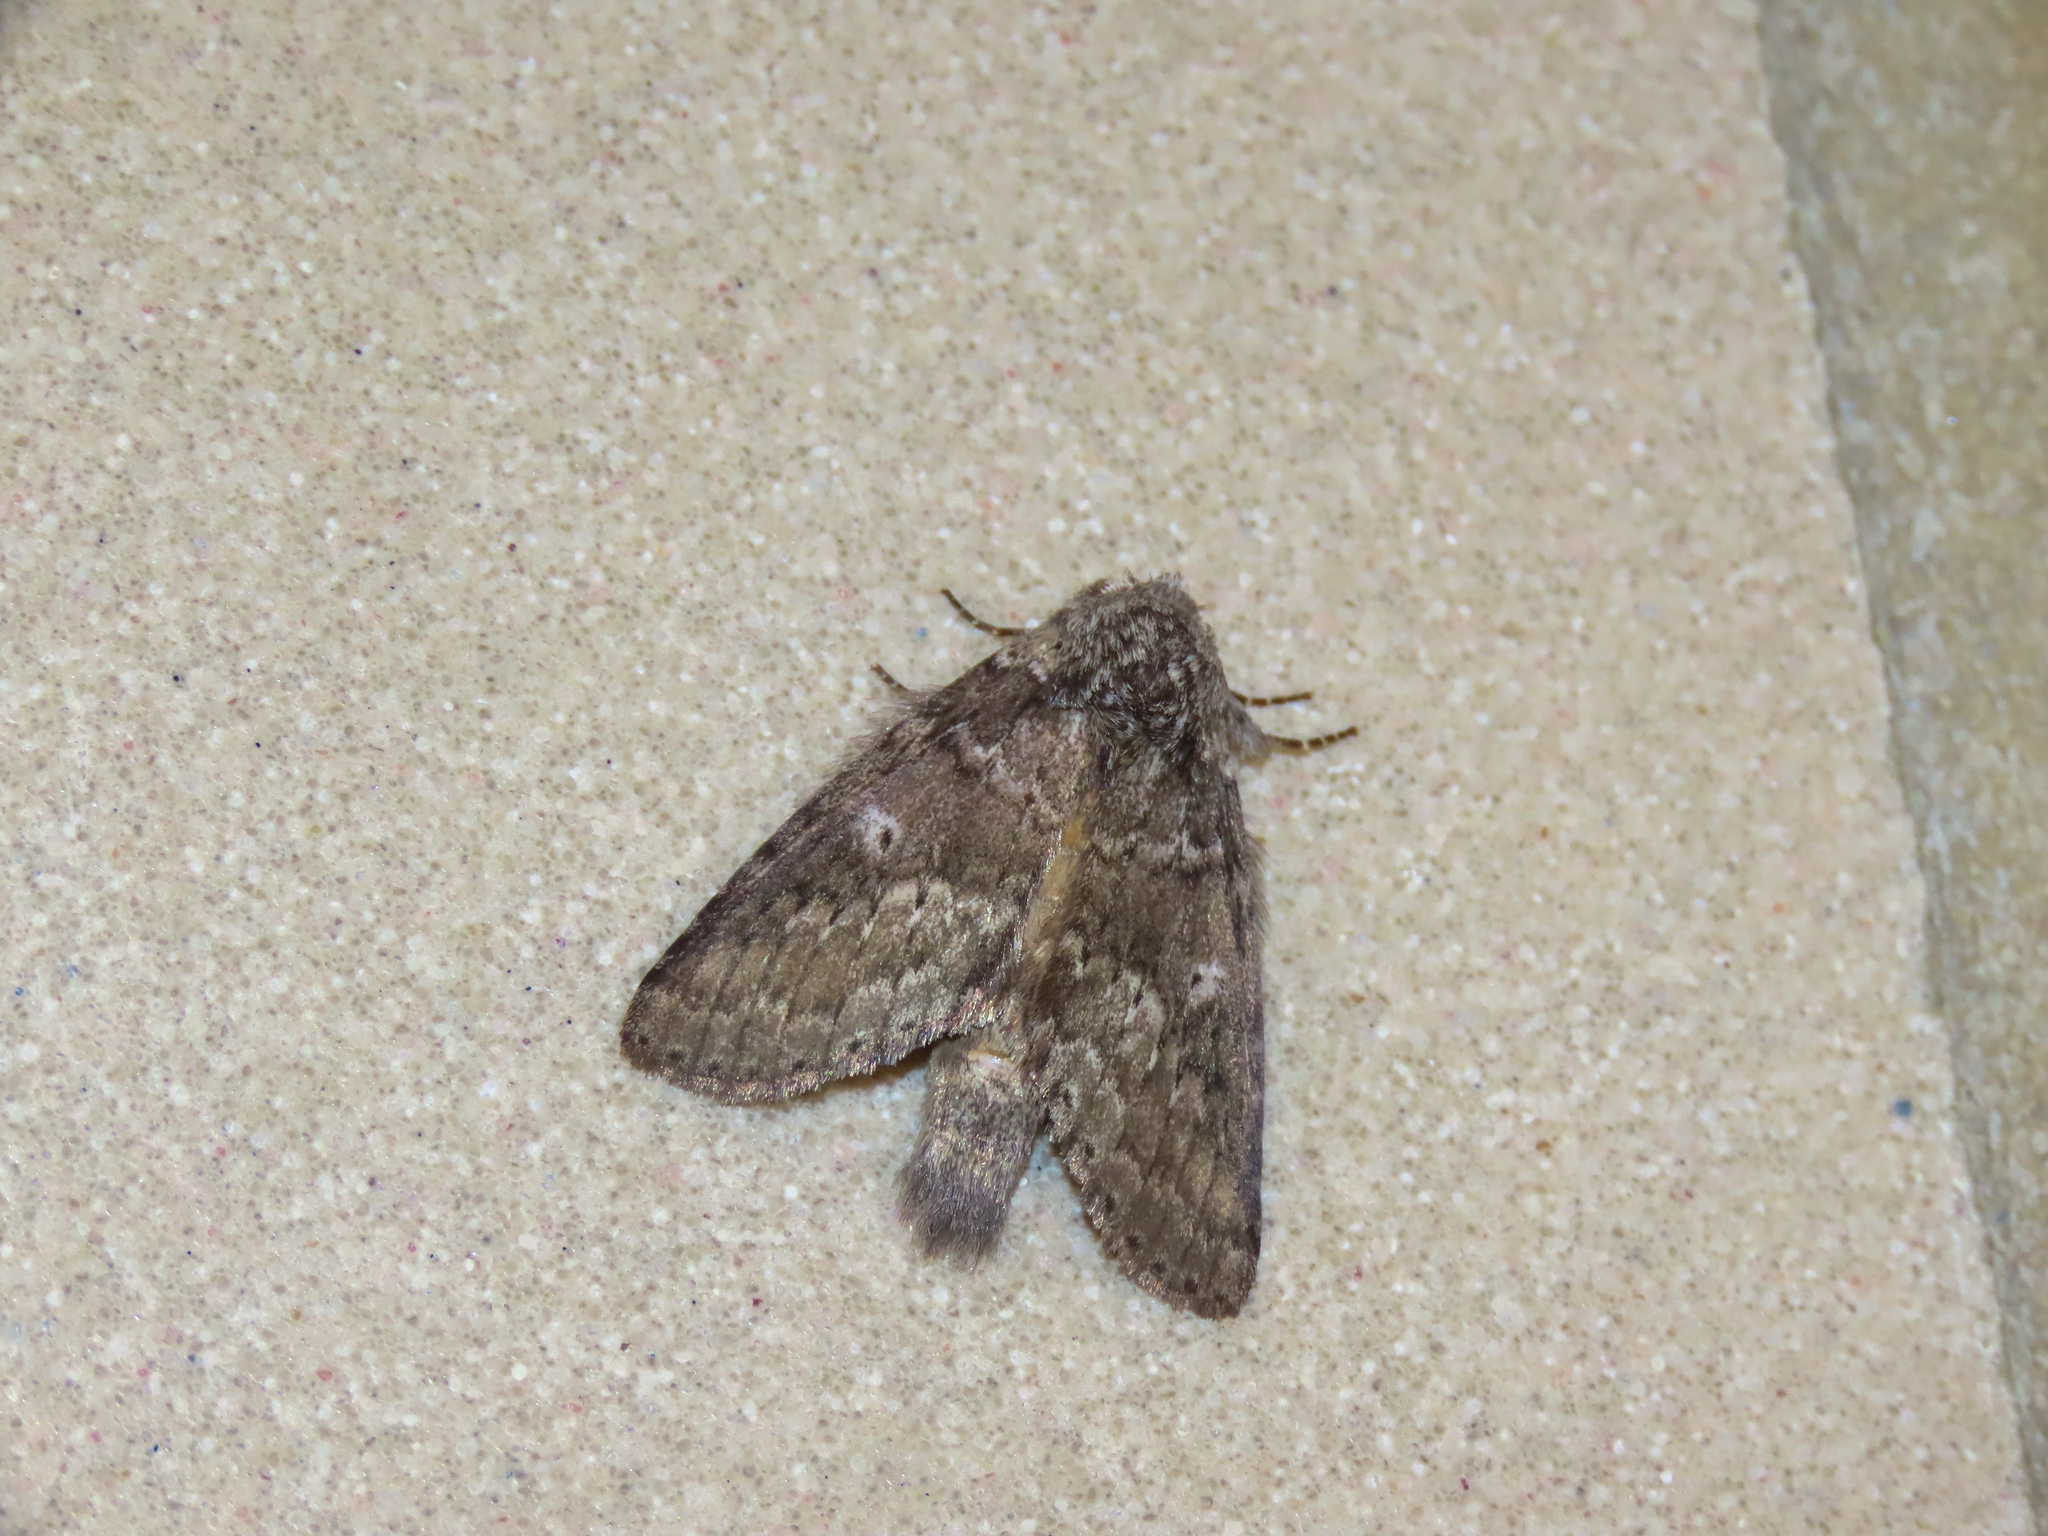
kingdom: Animalia
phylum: Arthropoda
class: Insecta
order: Lepidoptera
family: Notodontidae
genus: Lochmaeus
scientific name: Lochmaeus manteo
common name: Variable oakleaf caterpillar moth
